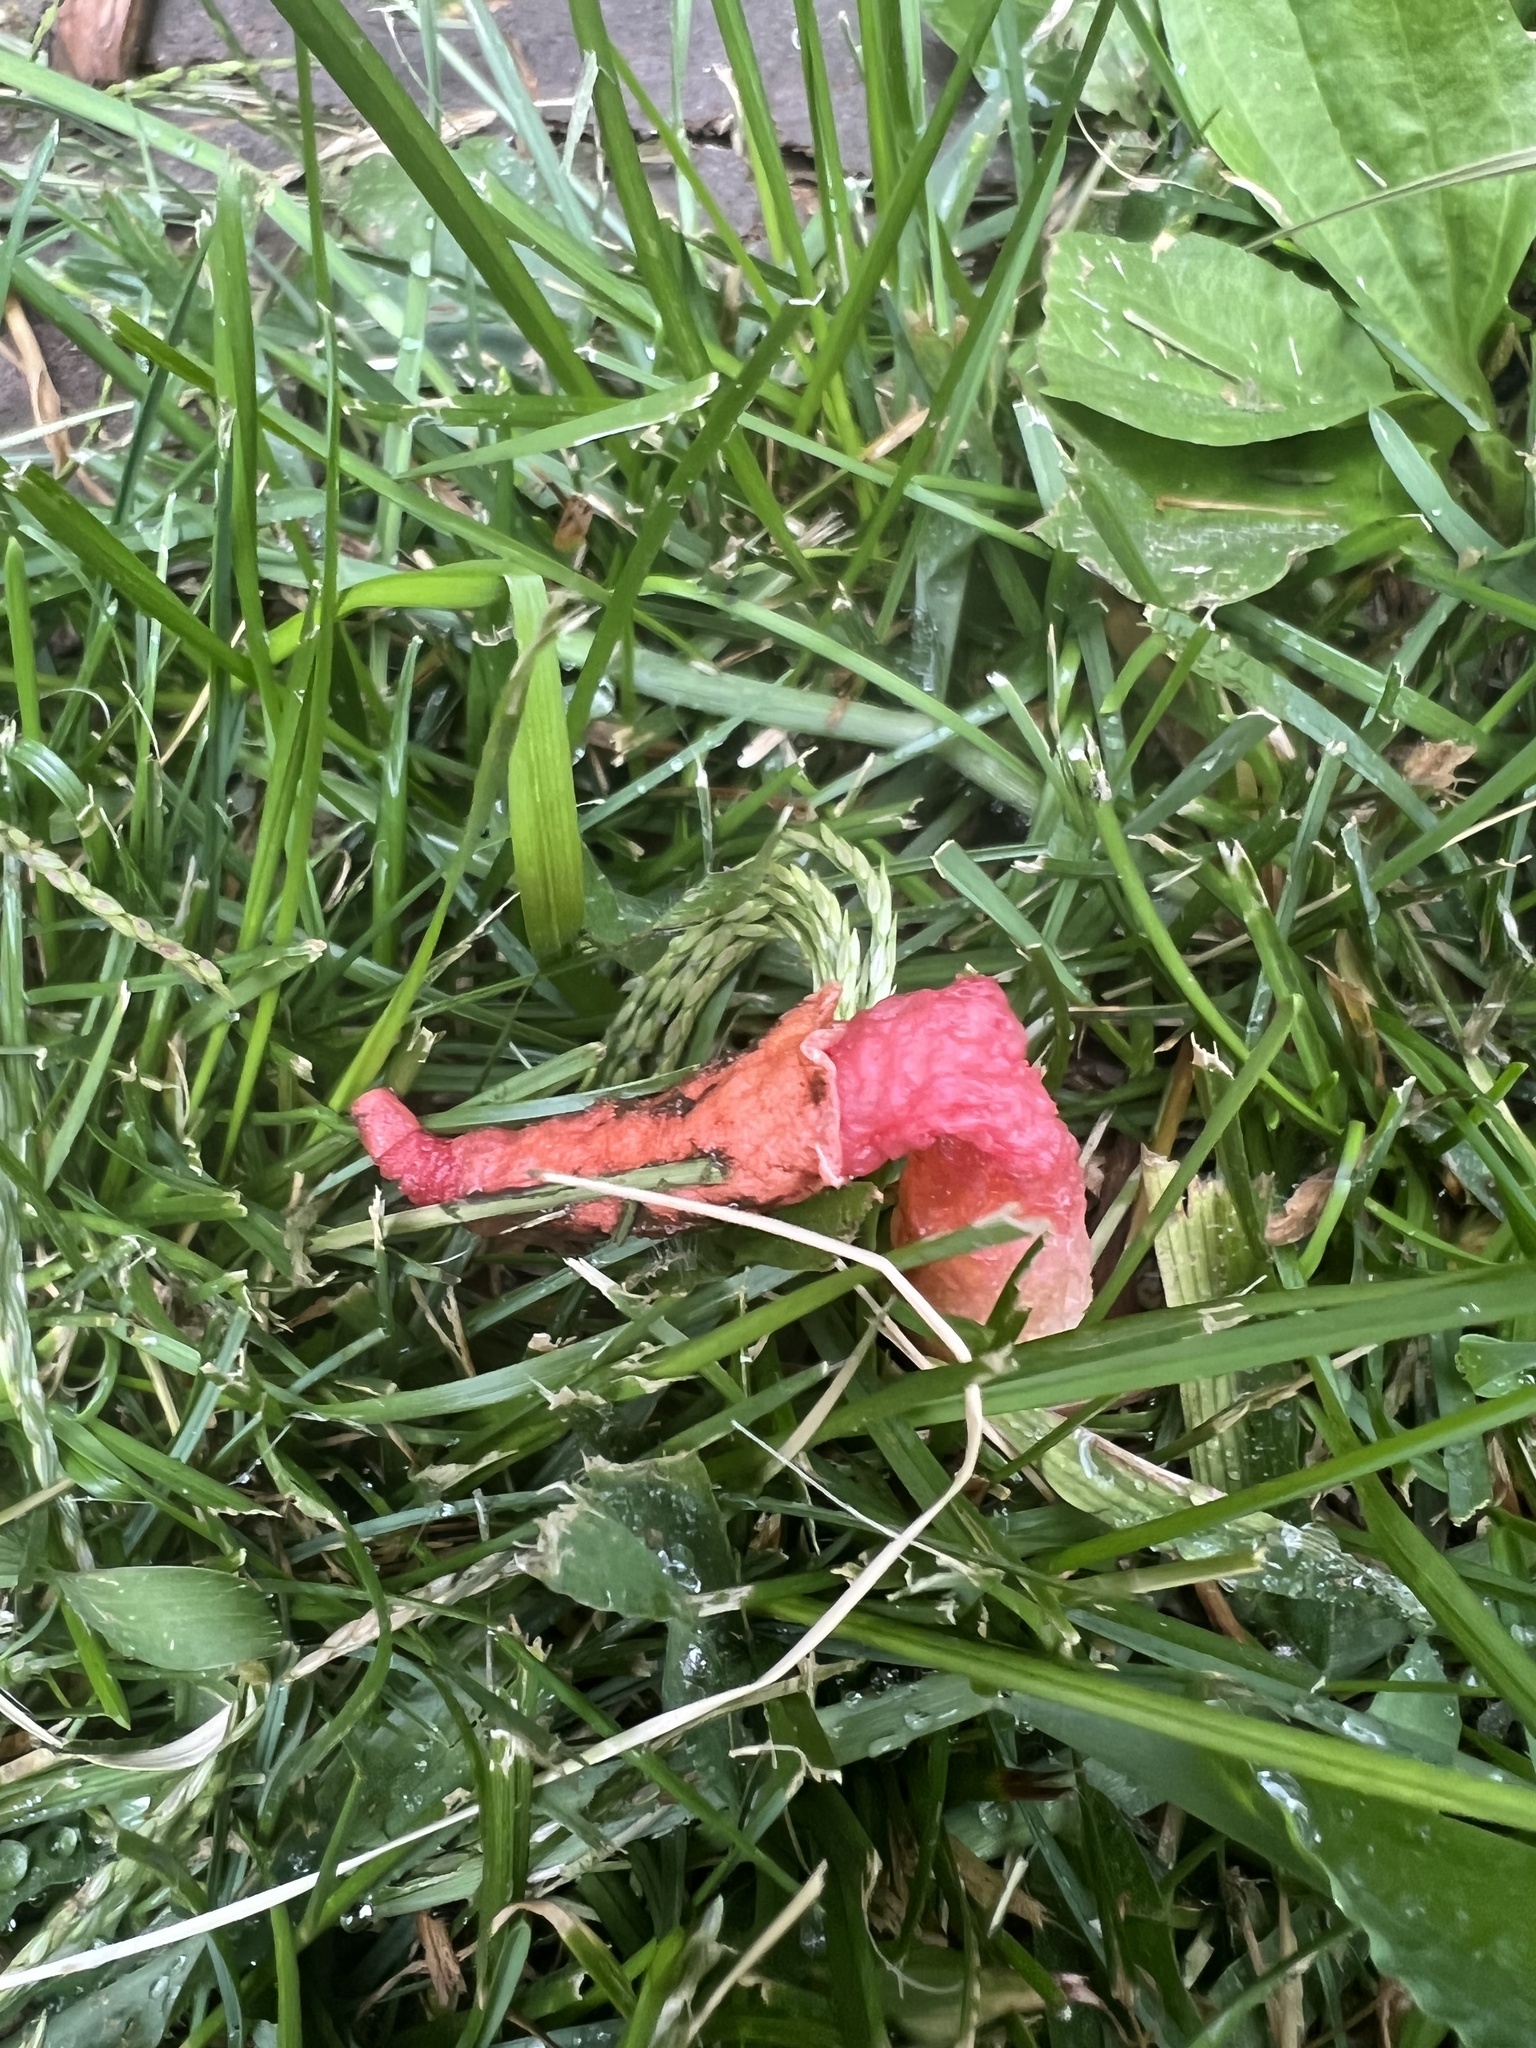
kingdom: Fungi
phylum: Basidiomycota
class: Agaricomycetes
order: Phallales
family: Phallaceae
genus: Phallus
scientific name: Phallus rugulosus
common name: Wrinkly stinkhorn
